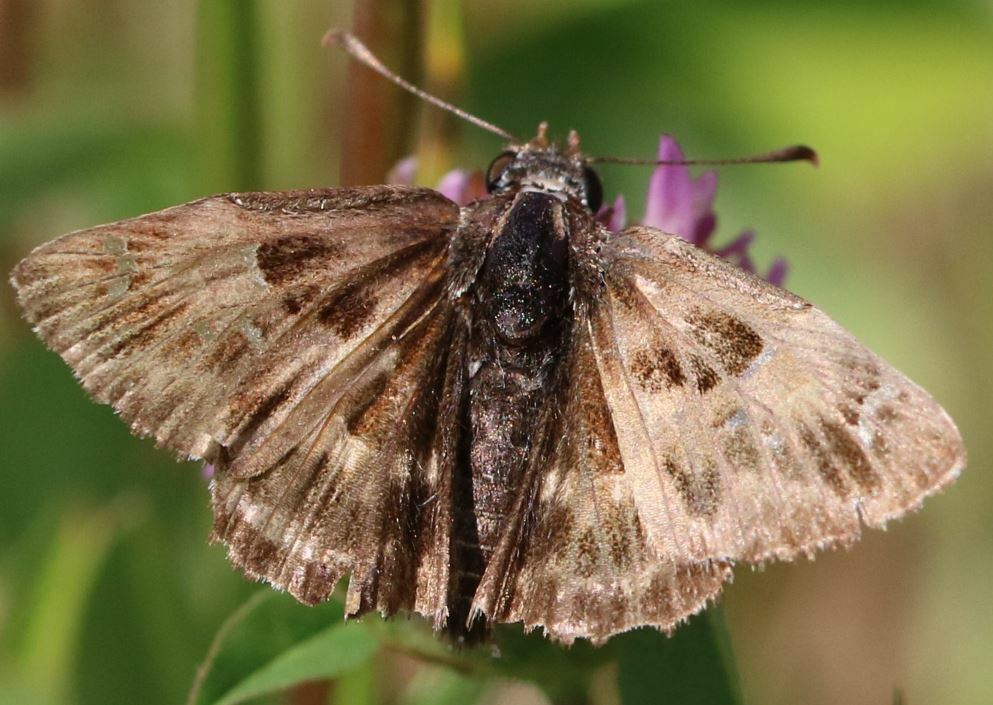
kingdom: Animalia
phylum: Arthropoda
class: Insecta
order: Lepidoptera
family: Hesperiidae
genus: Carcharodus
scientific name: Carcharodus alceae
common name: Mallow skipper
